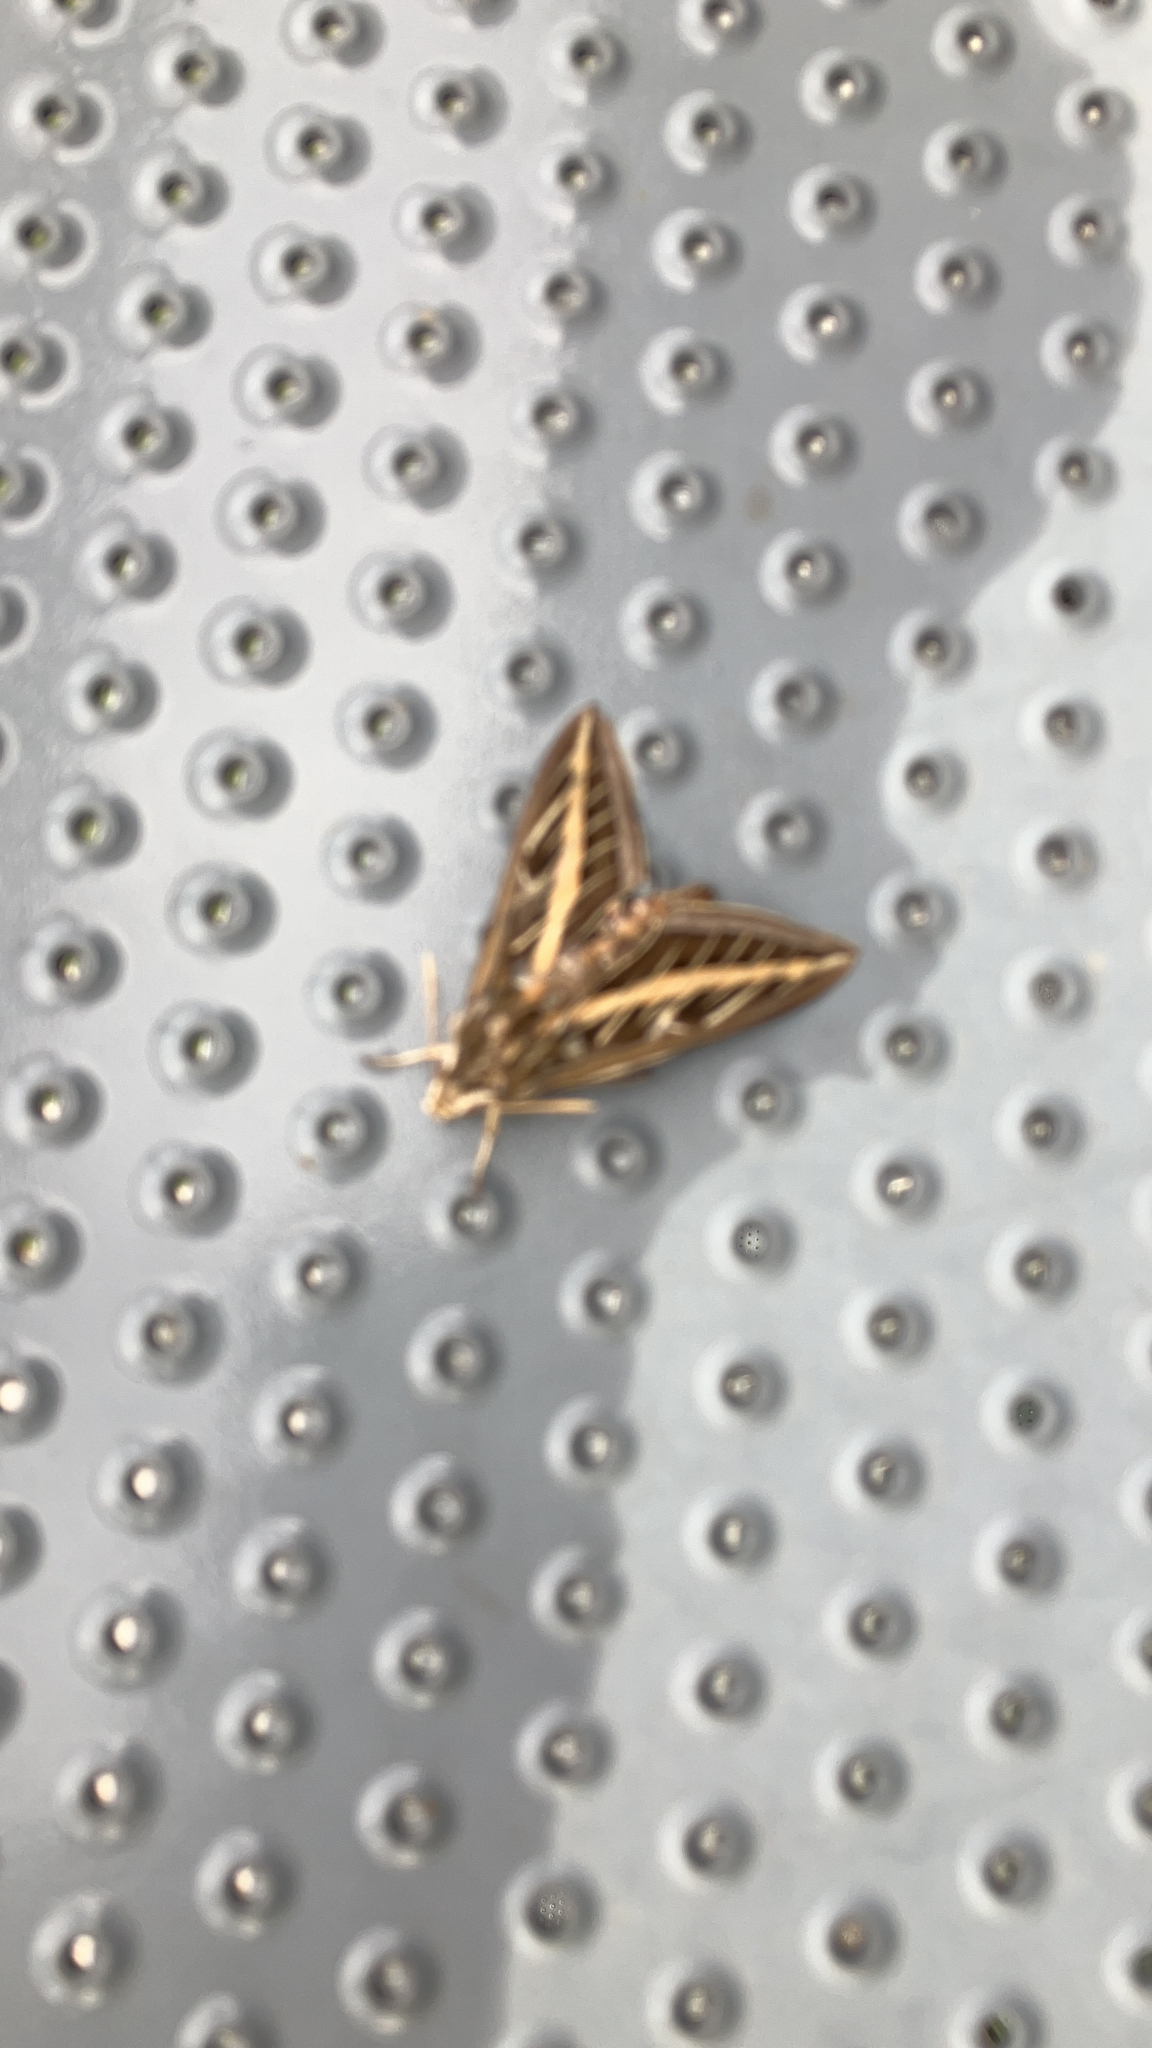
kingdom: Animalia
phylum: Arthropoda
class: Insecta
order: Lepidoptera
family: Sphingidae
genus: Hyles
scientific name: Hyles lineata
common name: White-lined sphinx
